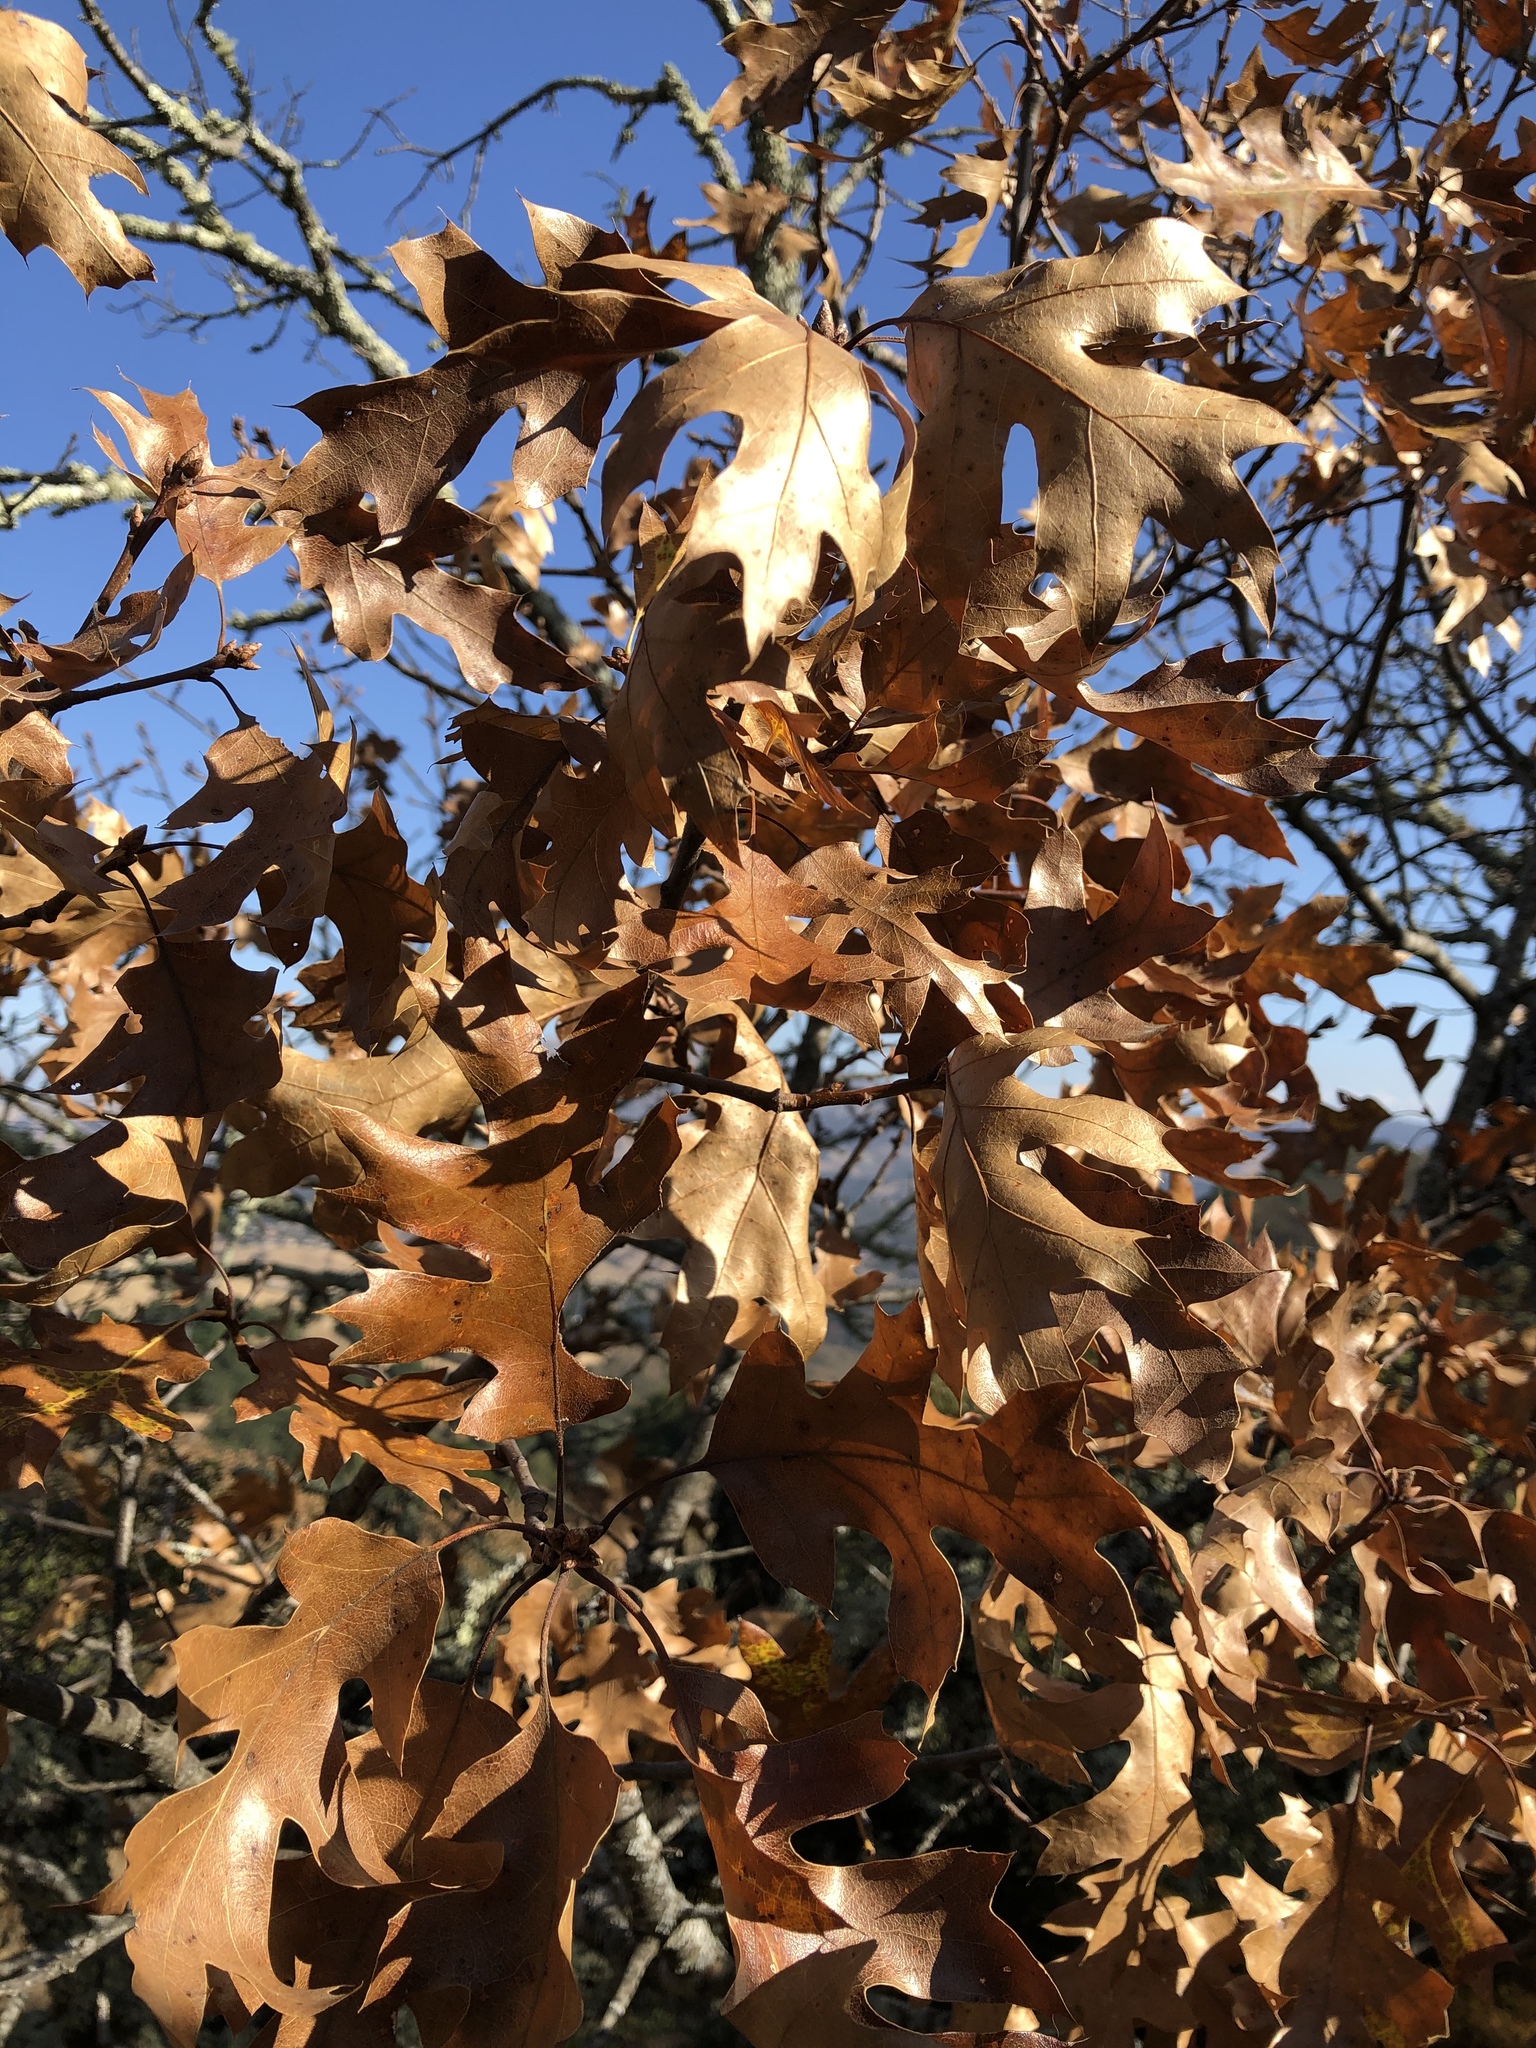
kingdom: Plantae
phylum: Tracheophyta
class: Magnoliopsida
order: Fagales
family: Fagaceae
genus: Quercus
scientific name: Quercus kelloggii
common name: California black oak
